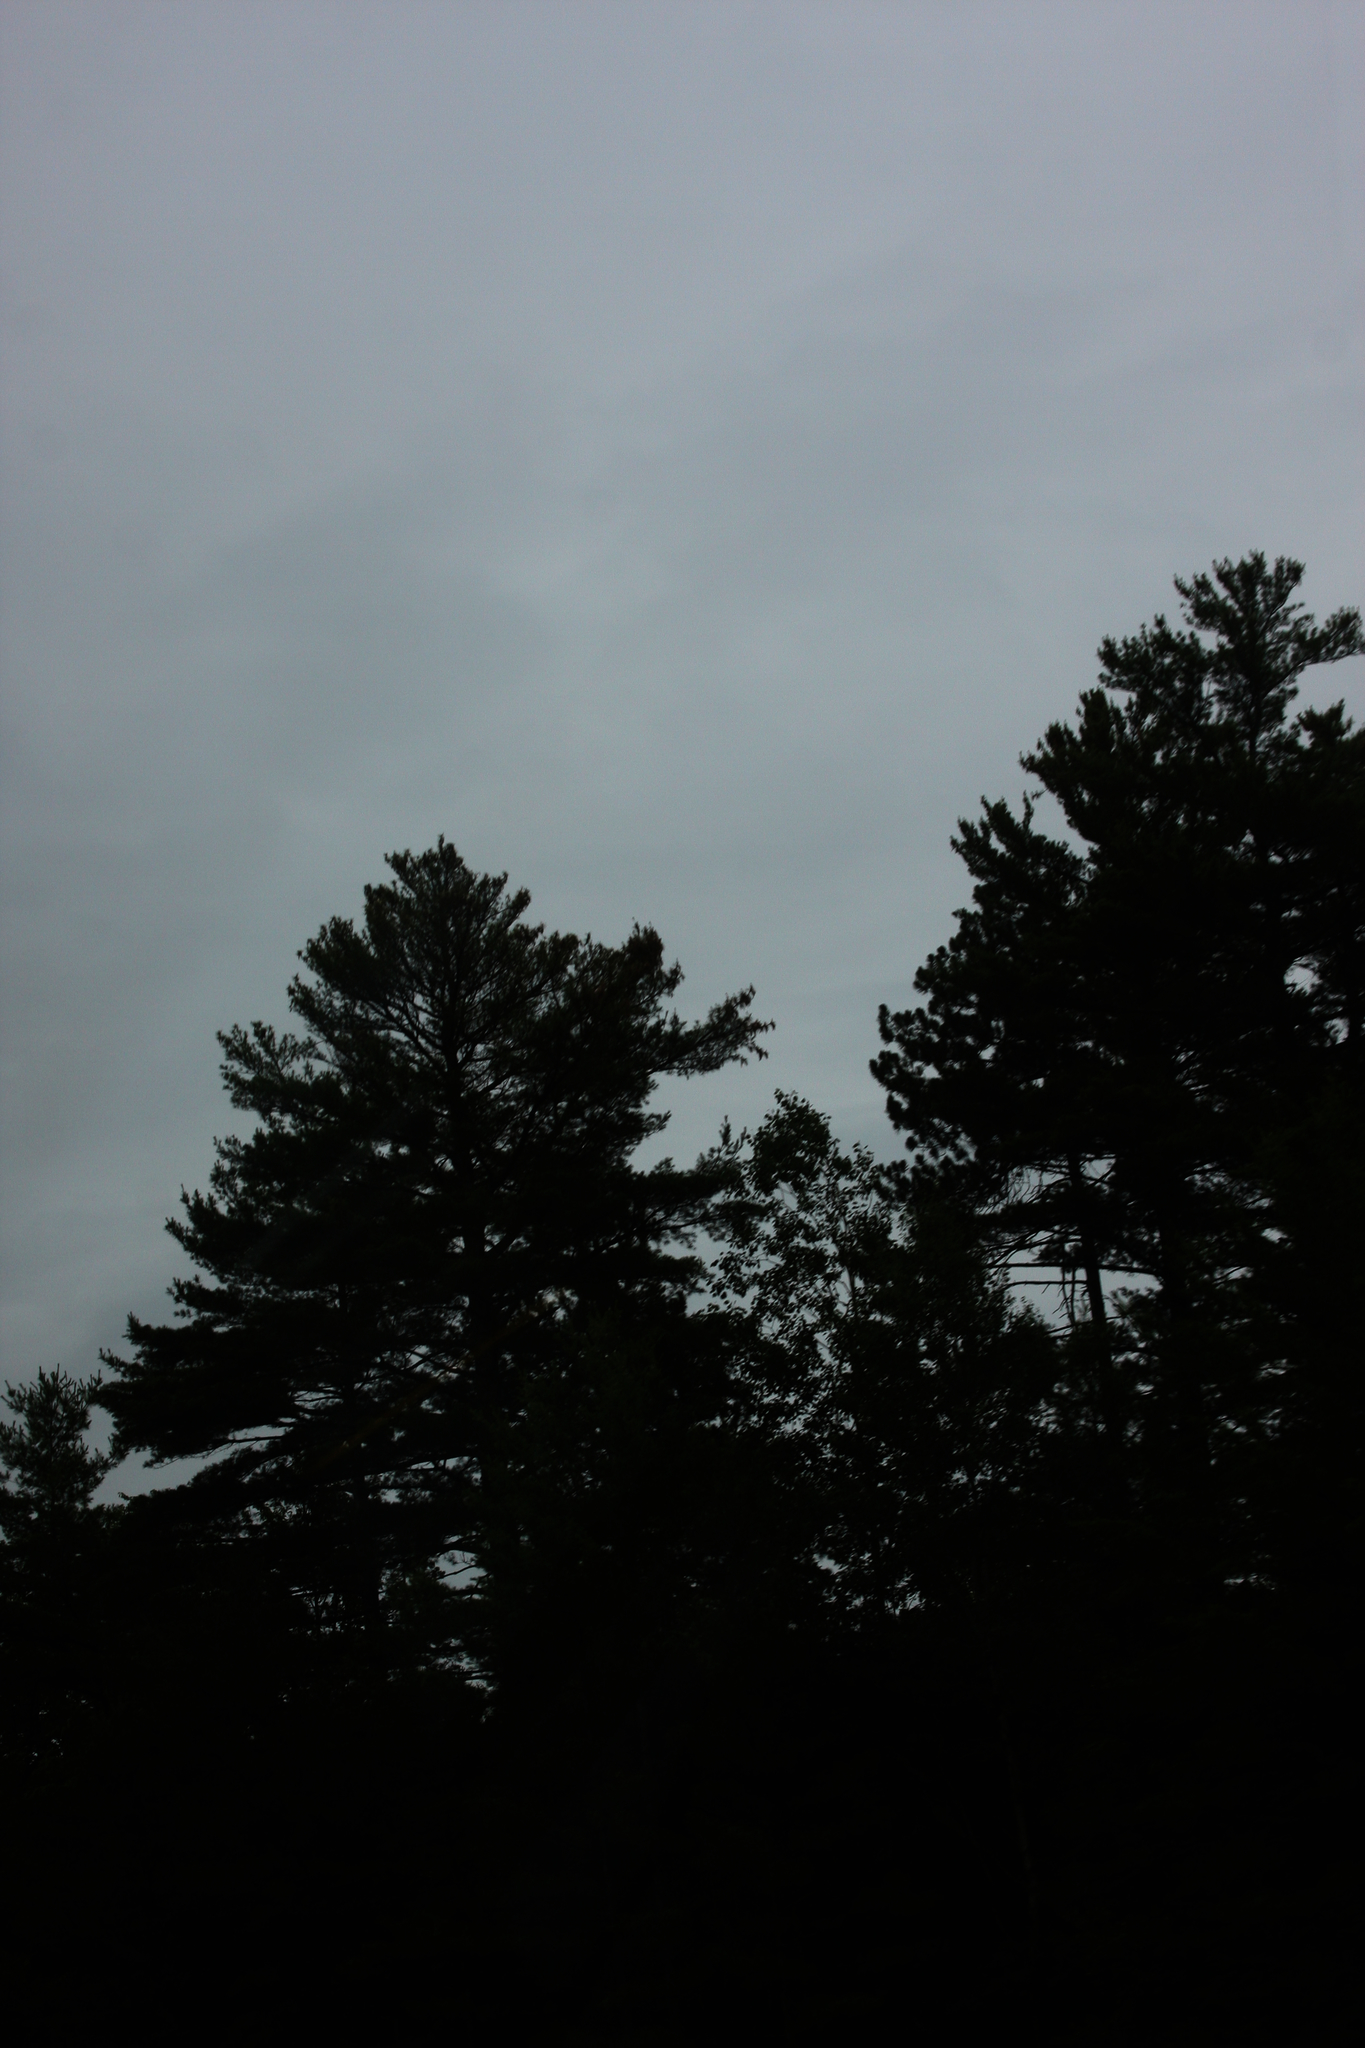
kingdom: Plantae
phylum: Tracheophyta
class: Pinopsida
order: Pinales
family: Pinaceae
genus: Pinus
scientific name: Pinus strobus
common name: Weymouth pine
